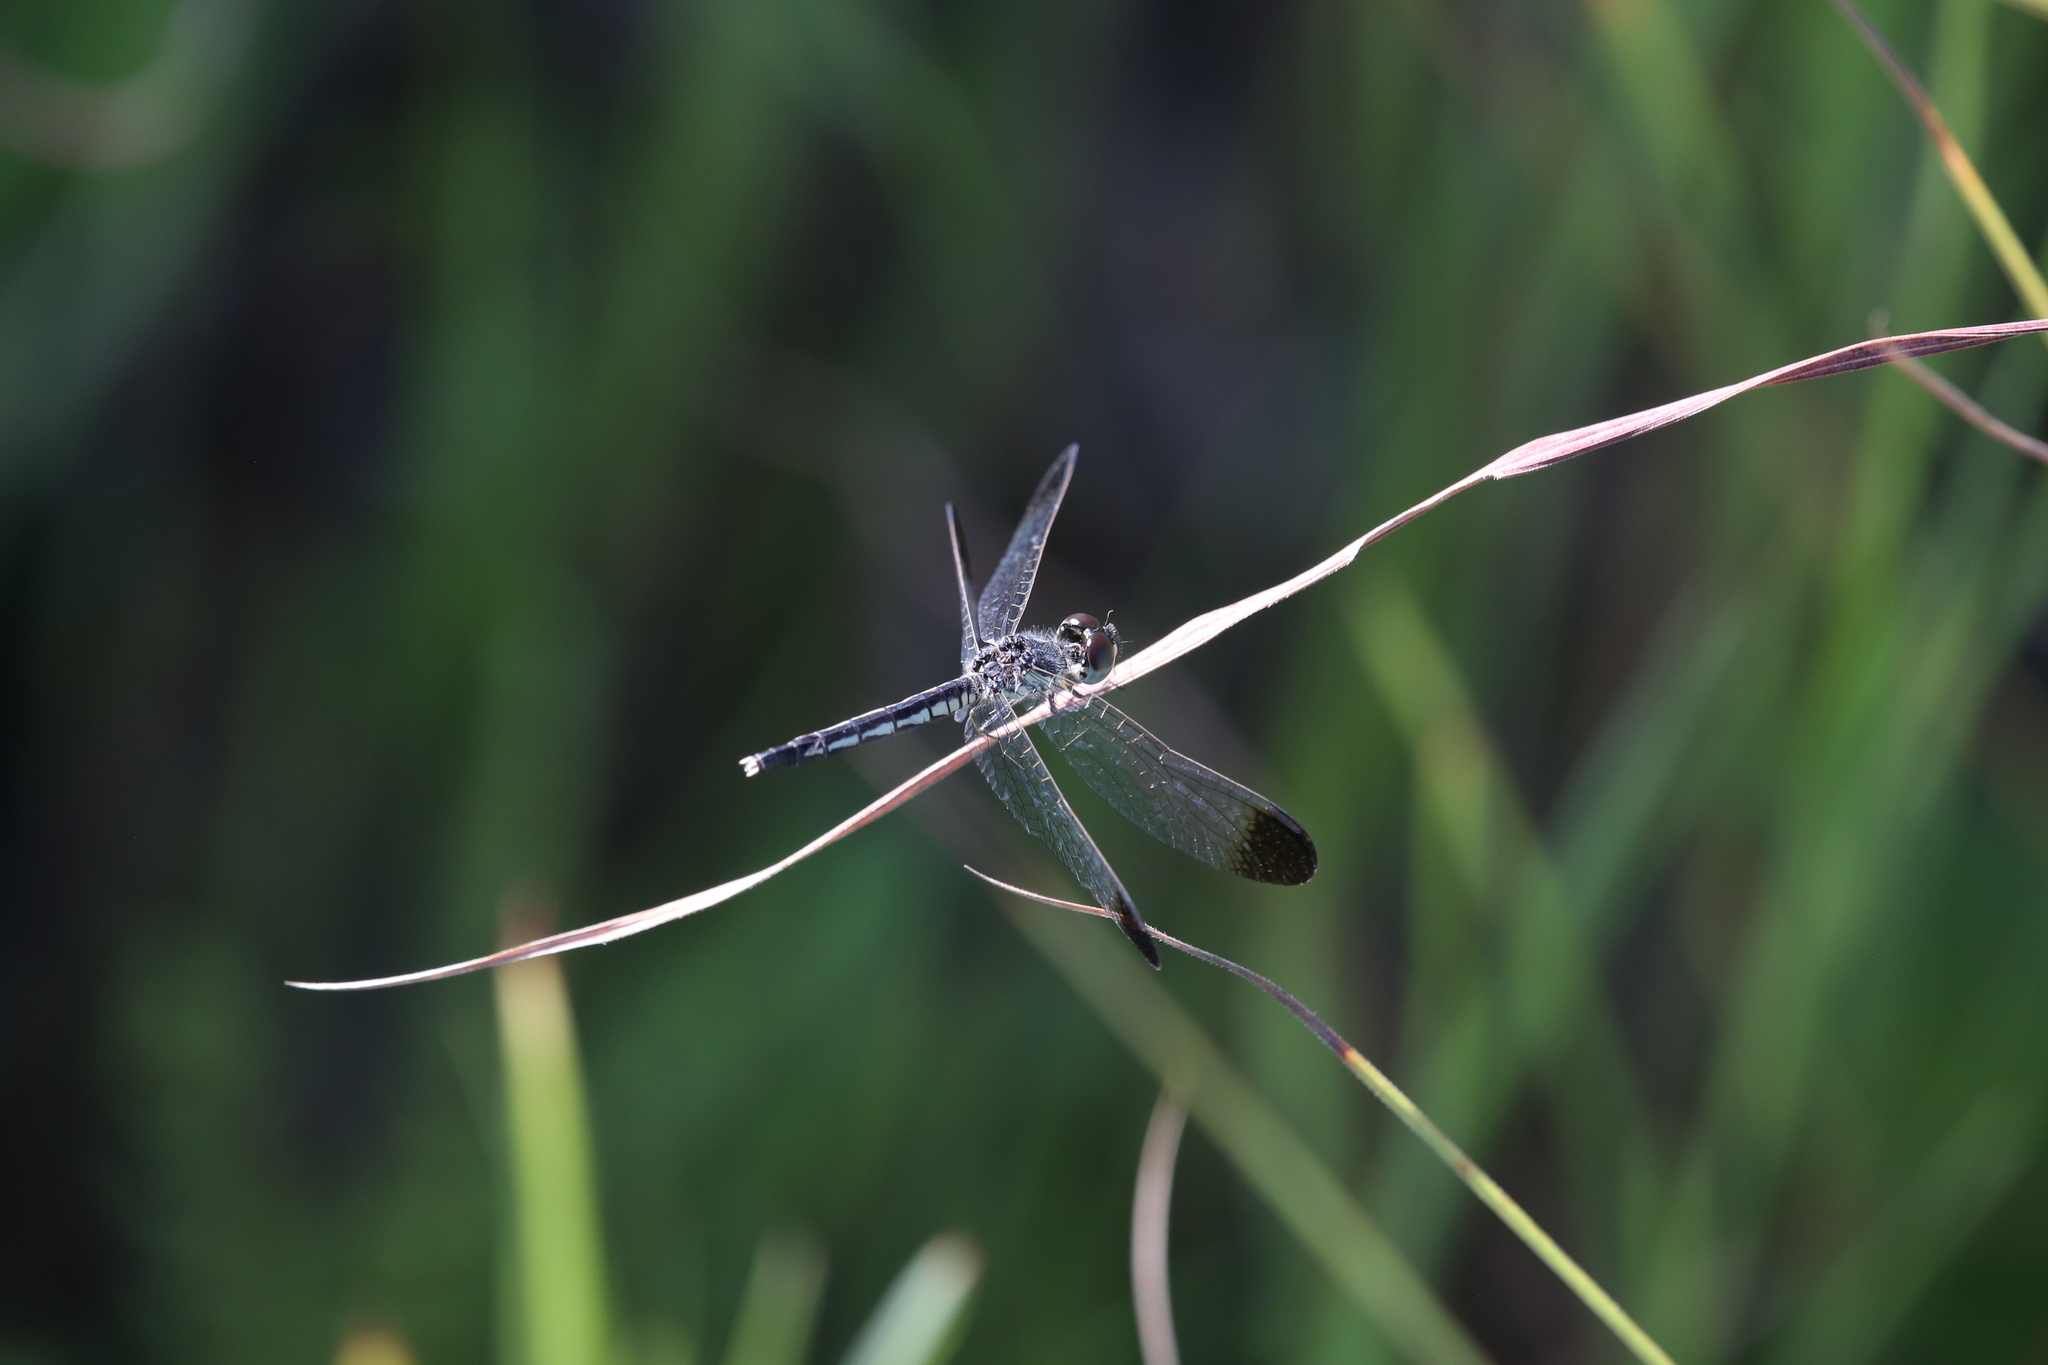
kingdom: Animalia
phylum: Arthropoda
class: Insecta
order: Odonata
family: Libellulidae
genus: Diplacodes
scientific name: Diplacodes nebulosa
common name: Black-tipped percher
